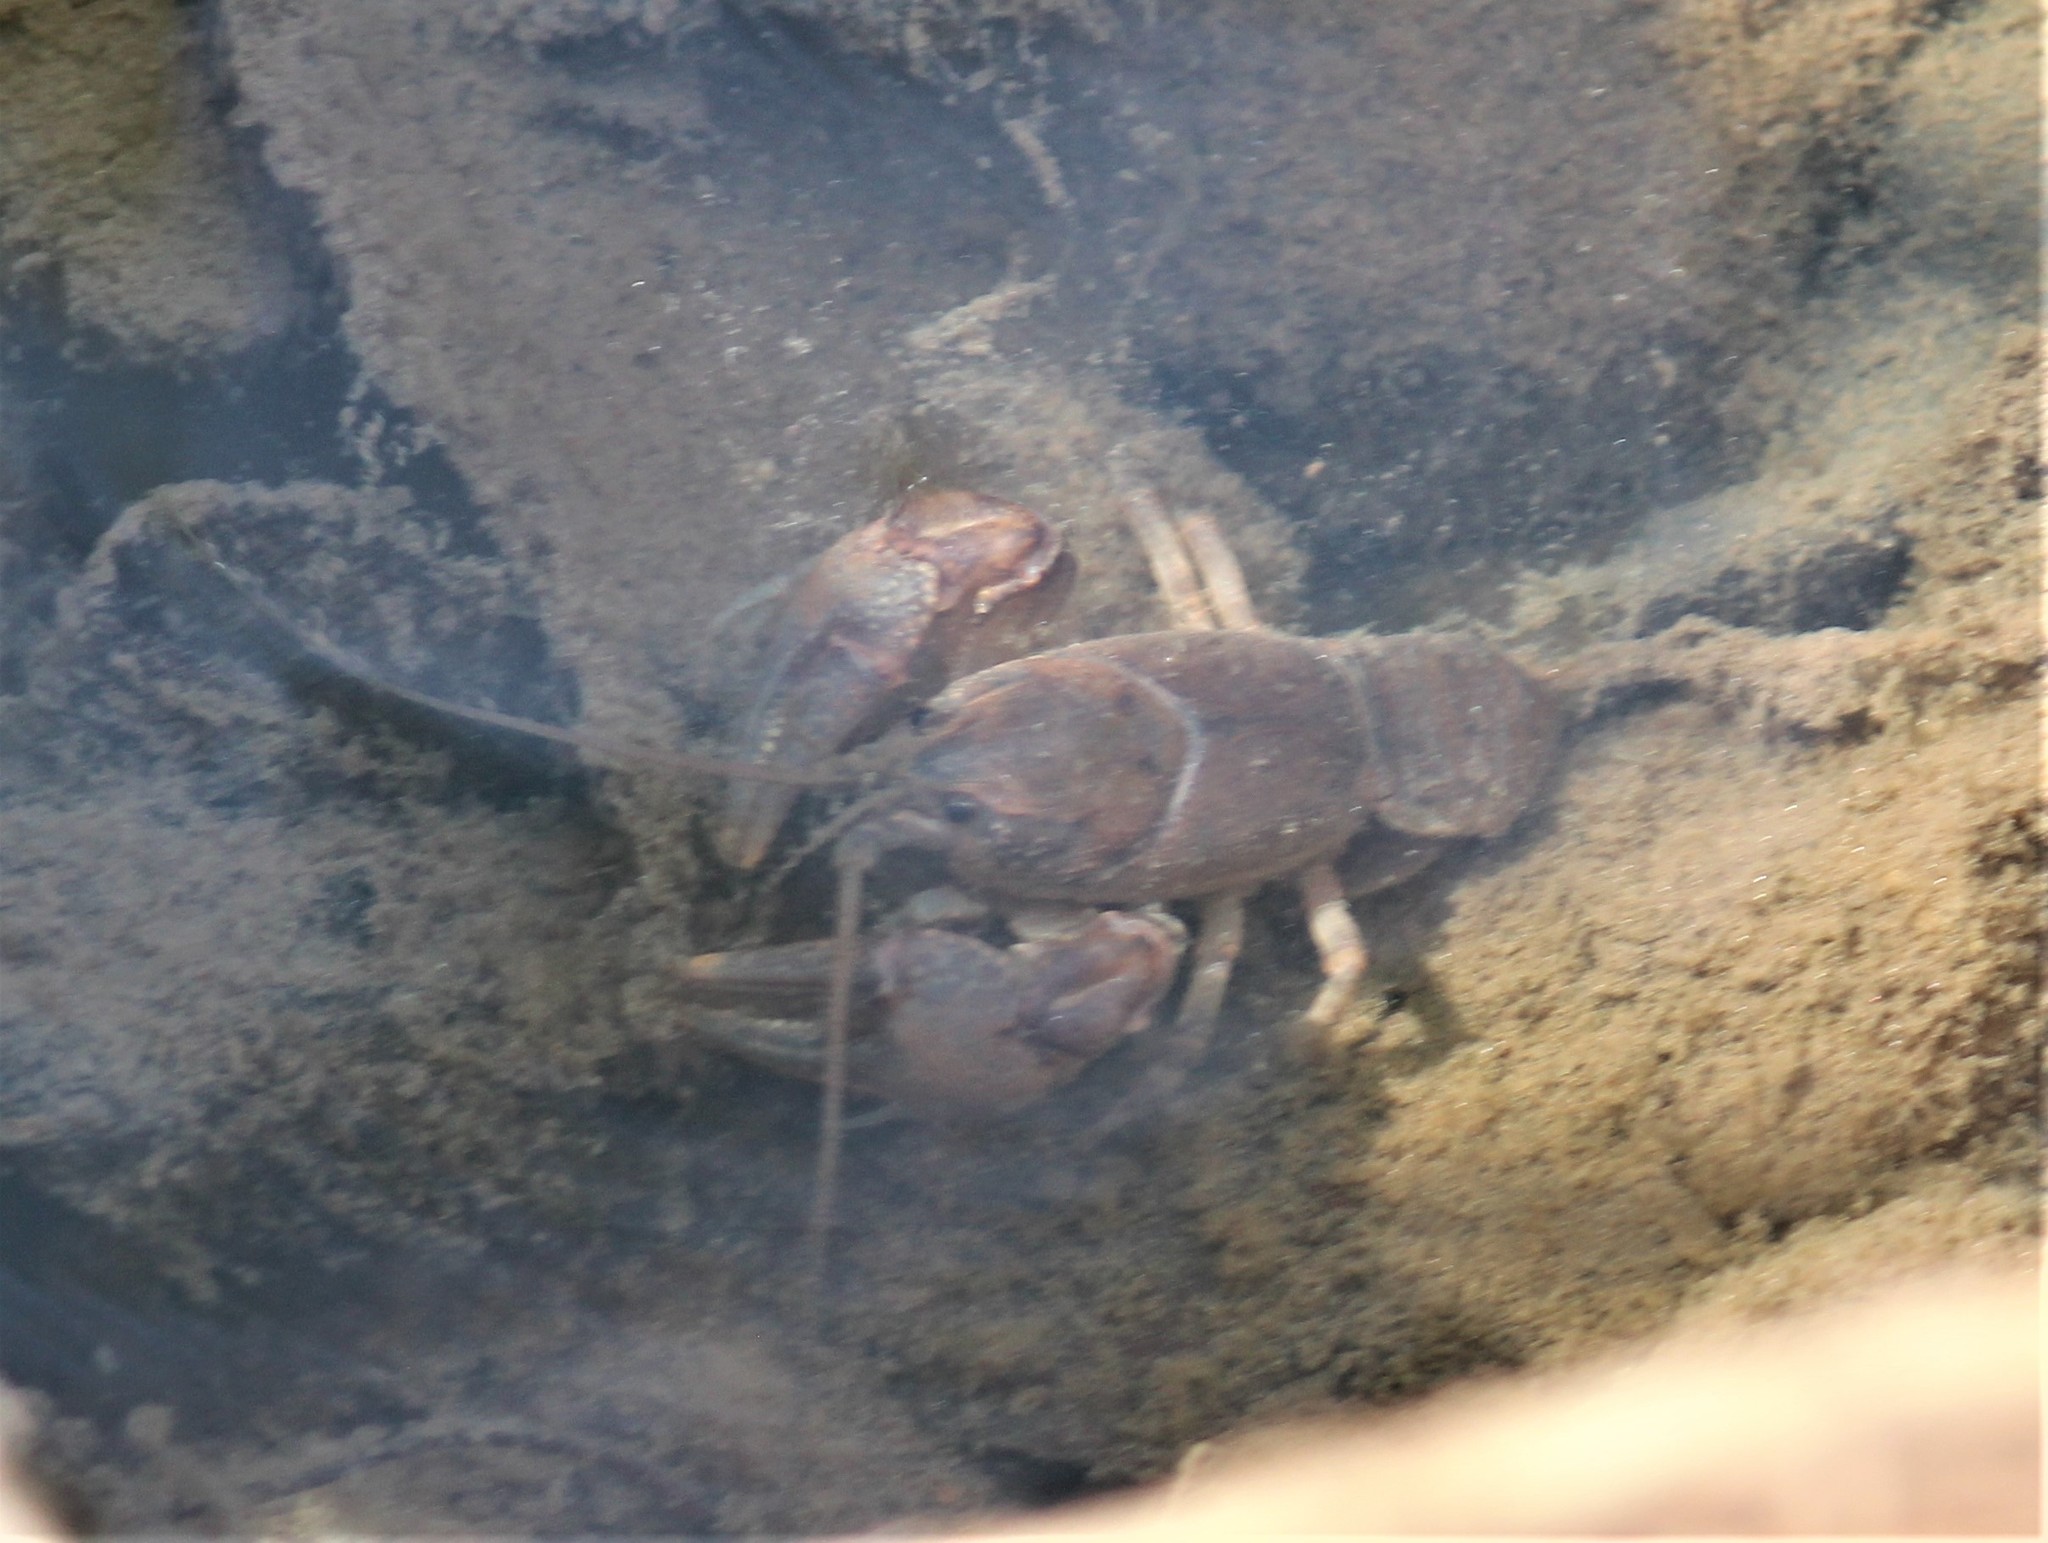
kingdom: Animalia
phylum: Arthropoda
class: Malacostraca
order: Decapoda
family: Cambaridae
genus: Cambarus
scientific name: Cambarus davidi
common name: Carolina ladle crayfish
